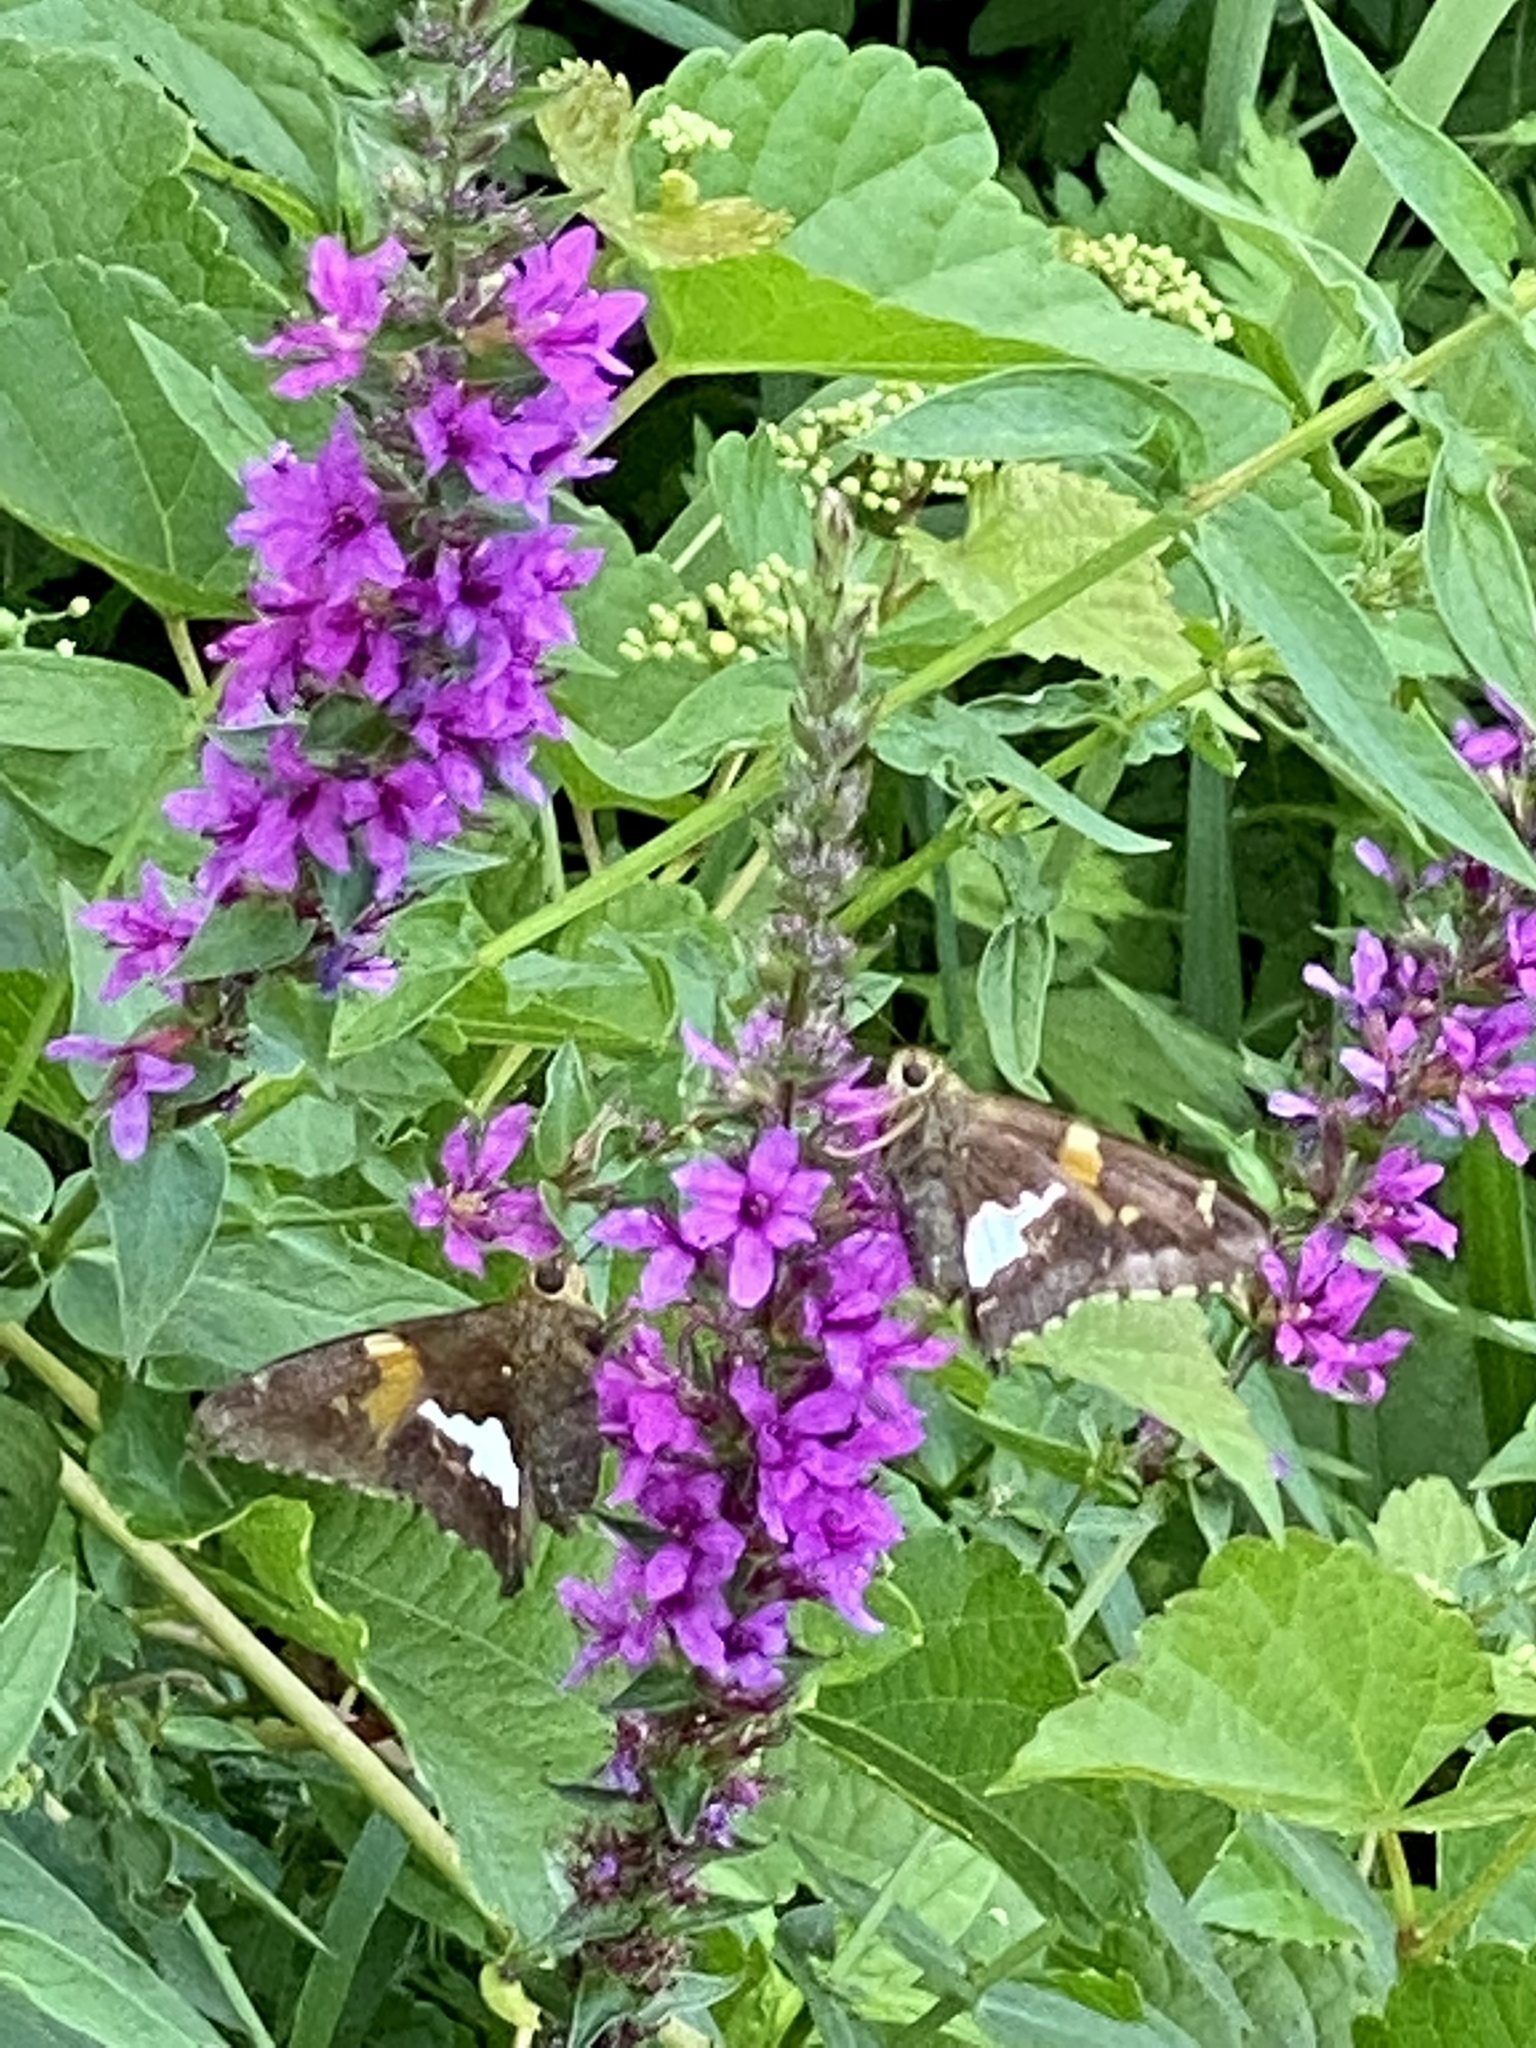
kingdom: Animalia
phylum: Arthropoda
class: Insecta
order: Lepidoptera
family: Hesperiidae
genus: Epargyreus
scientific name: Epargyreus clarus
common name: Silver-spotted skipper
